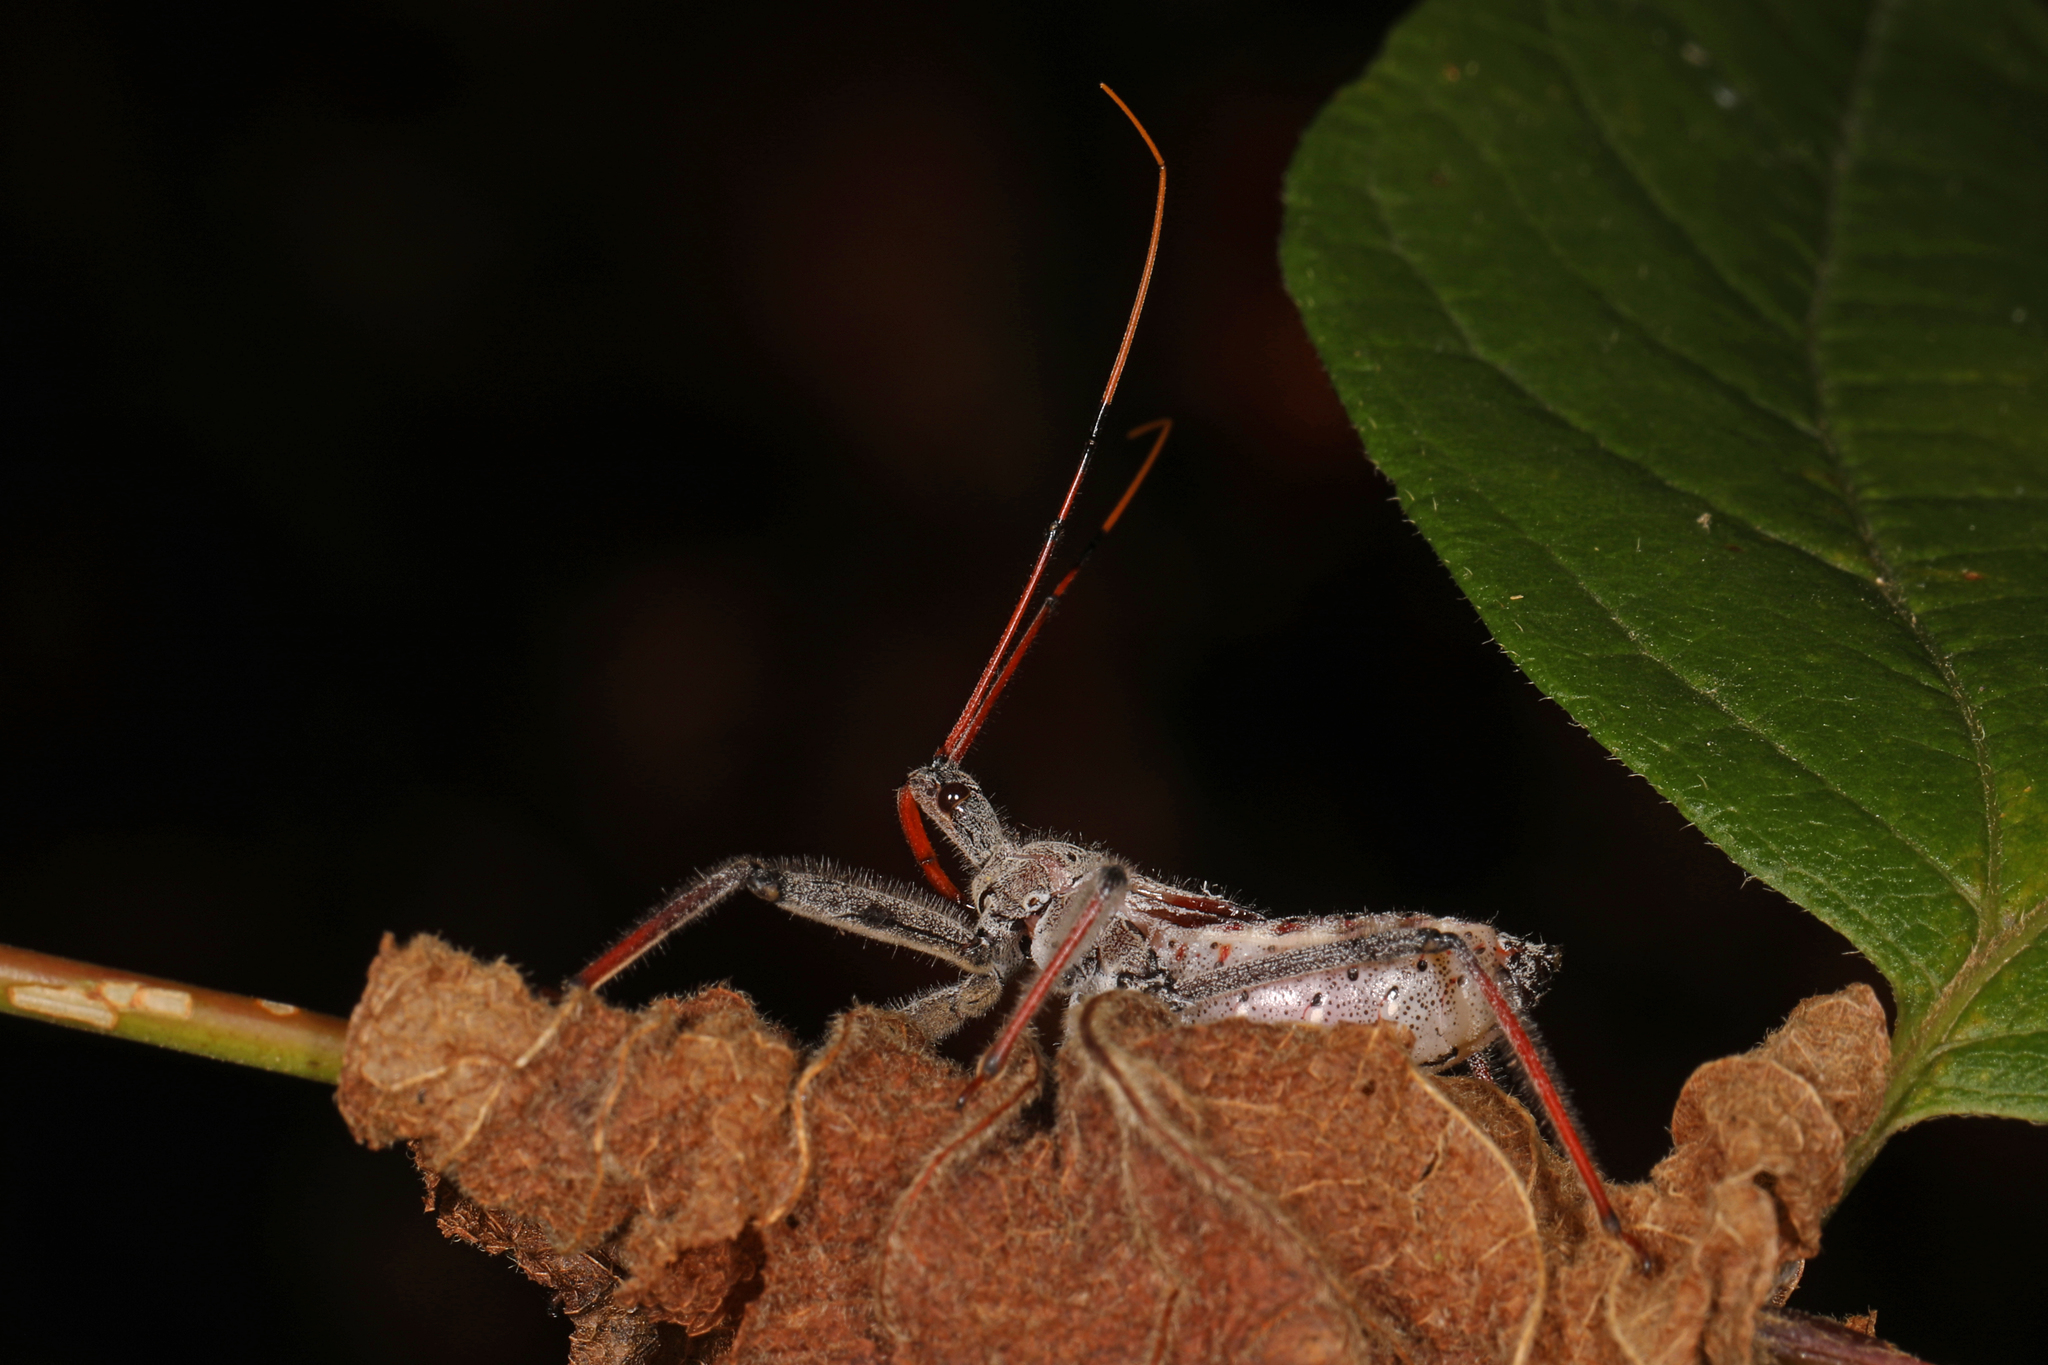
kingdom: Animalia
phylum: Arthropoda
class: Insecta
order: Hemiptera
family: Reduviidae
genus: Arilus
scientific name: Arilus cristatus
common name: North american wheel bug
